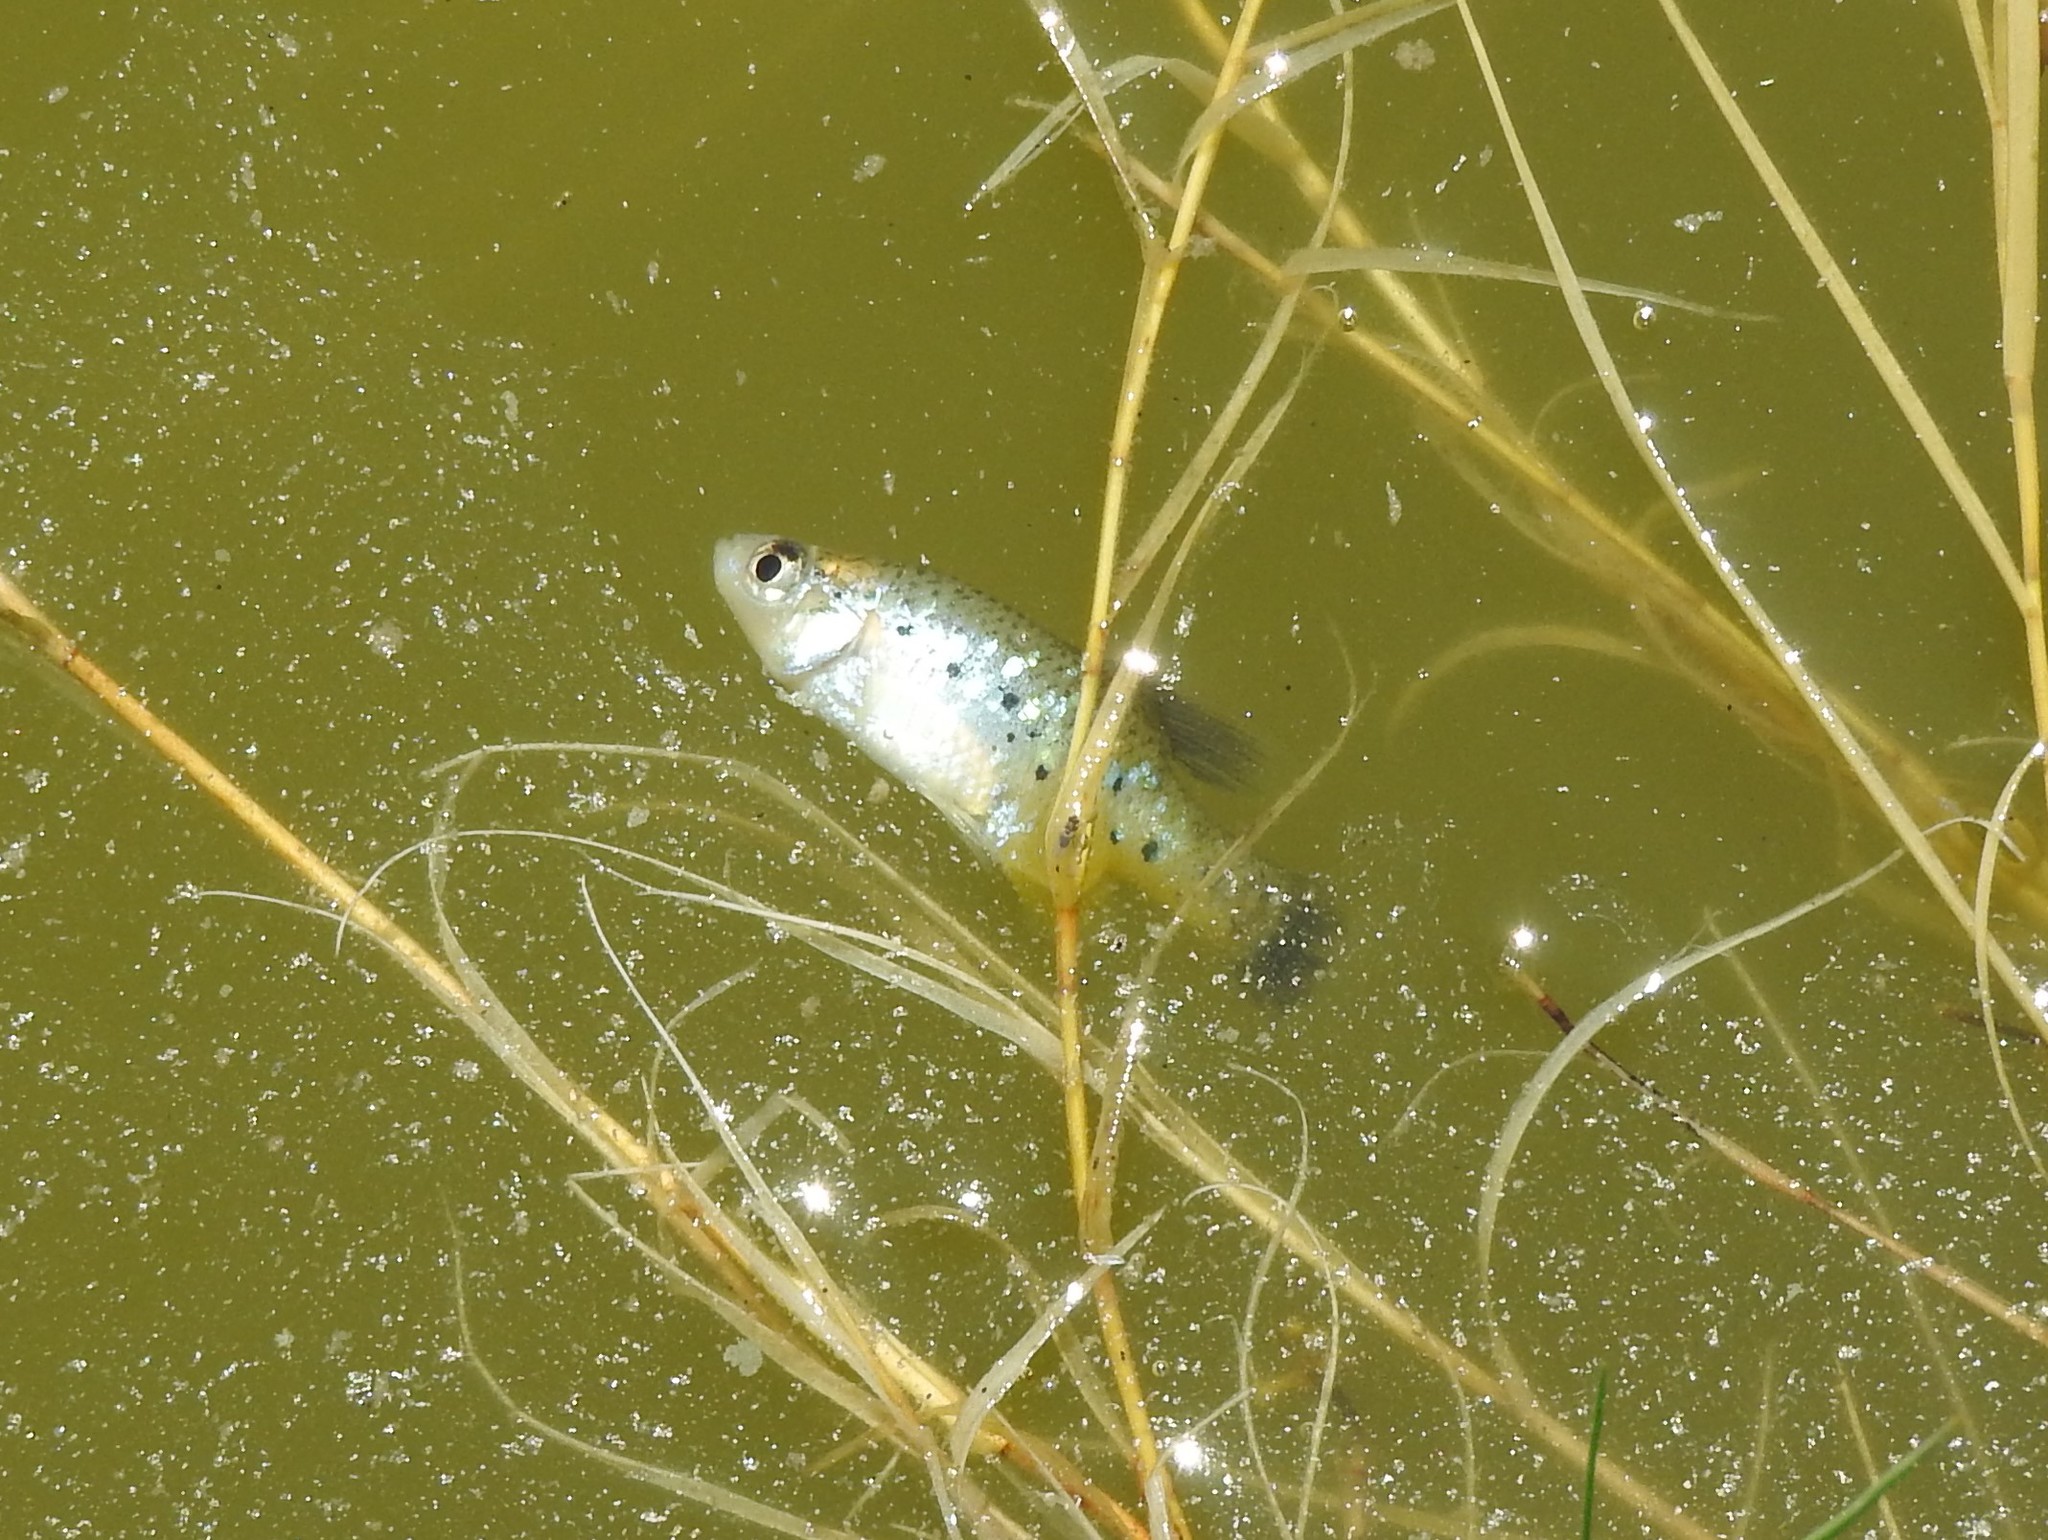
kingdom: Animalia
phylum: Chordata
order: Cyprinodontiformes
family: Goodeidae
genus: Xenotoca
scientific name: Xenotoca variata
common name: Jeweled splitfin
